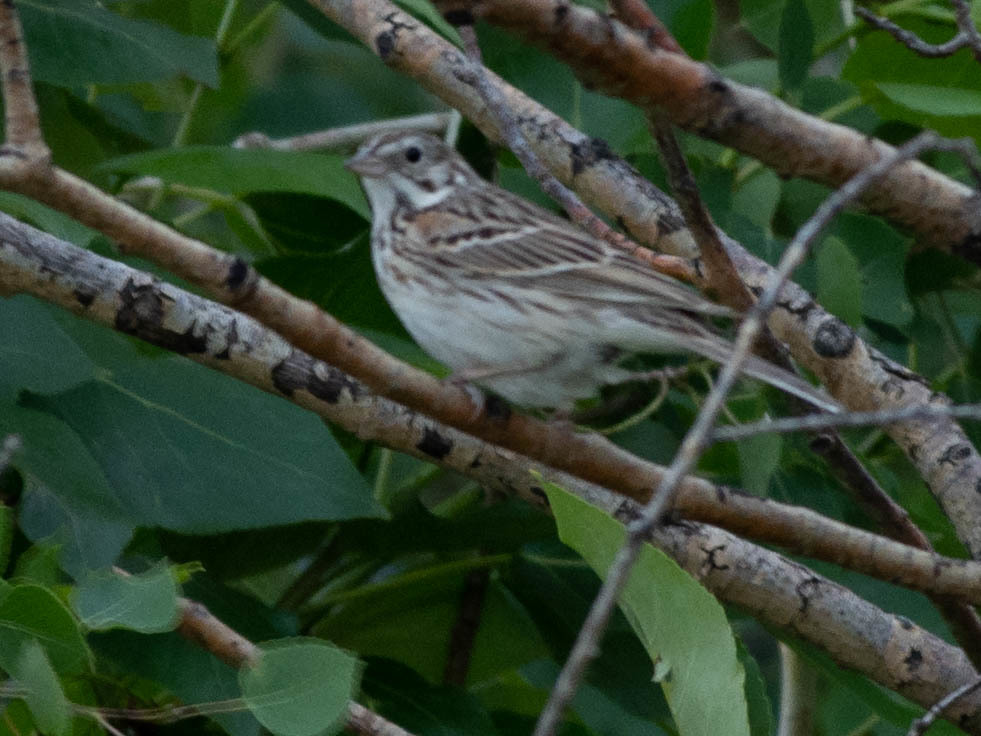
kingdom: Animalia
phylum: Chordata
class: Aves
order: Passeriformes
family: Passerellidae
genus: Pooecetes
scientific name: Pooecetes gramineus
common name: Vesper sparrow
